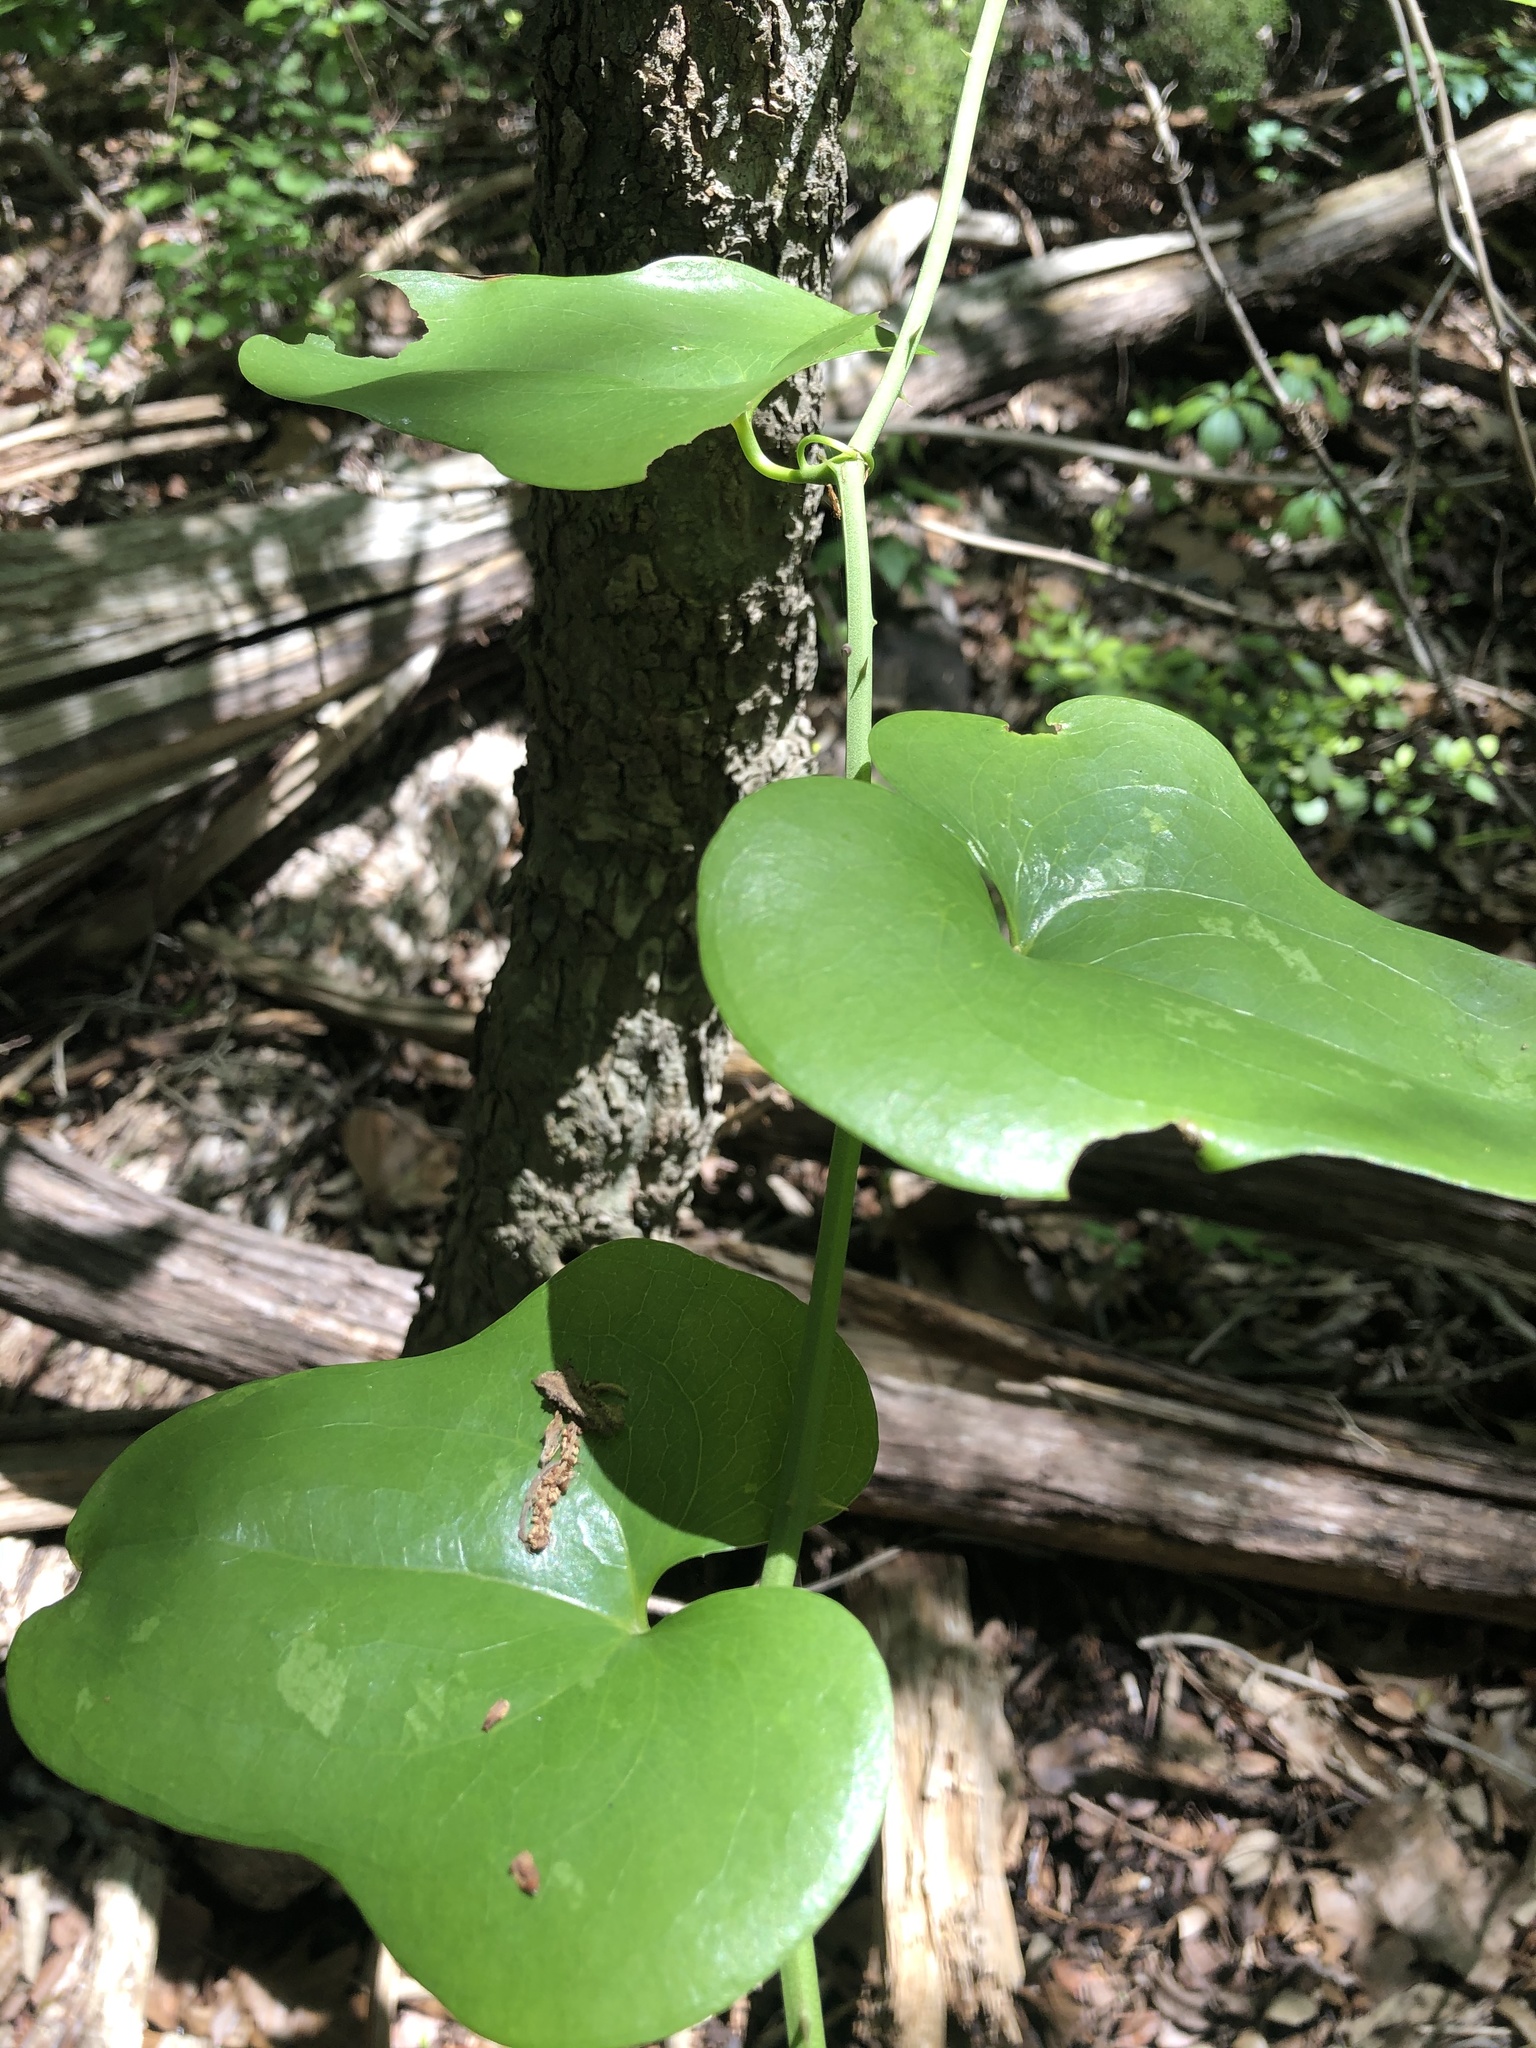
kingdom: Plantae
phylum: Tracheophyta
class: Liliopsida
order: Liliales
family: Smilacaceae
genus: Smilax
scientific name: Smilax bona-nox
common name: Catbrier
